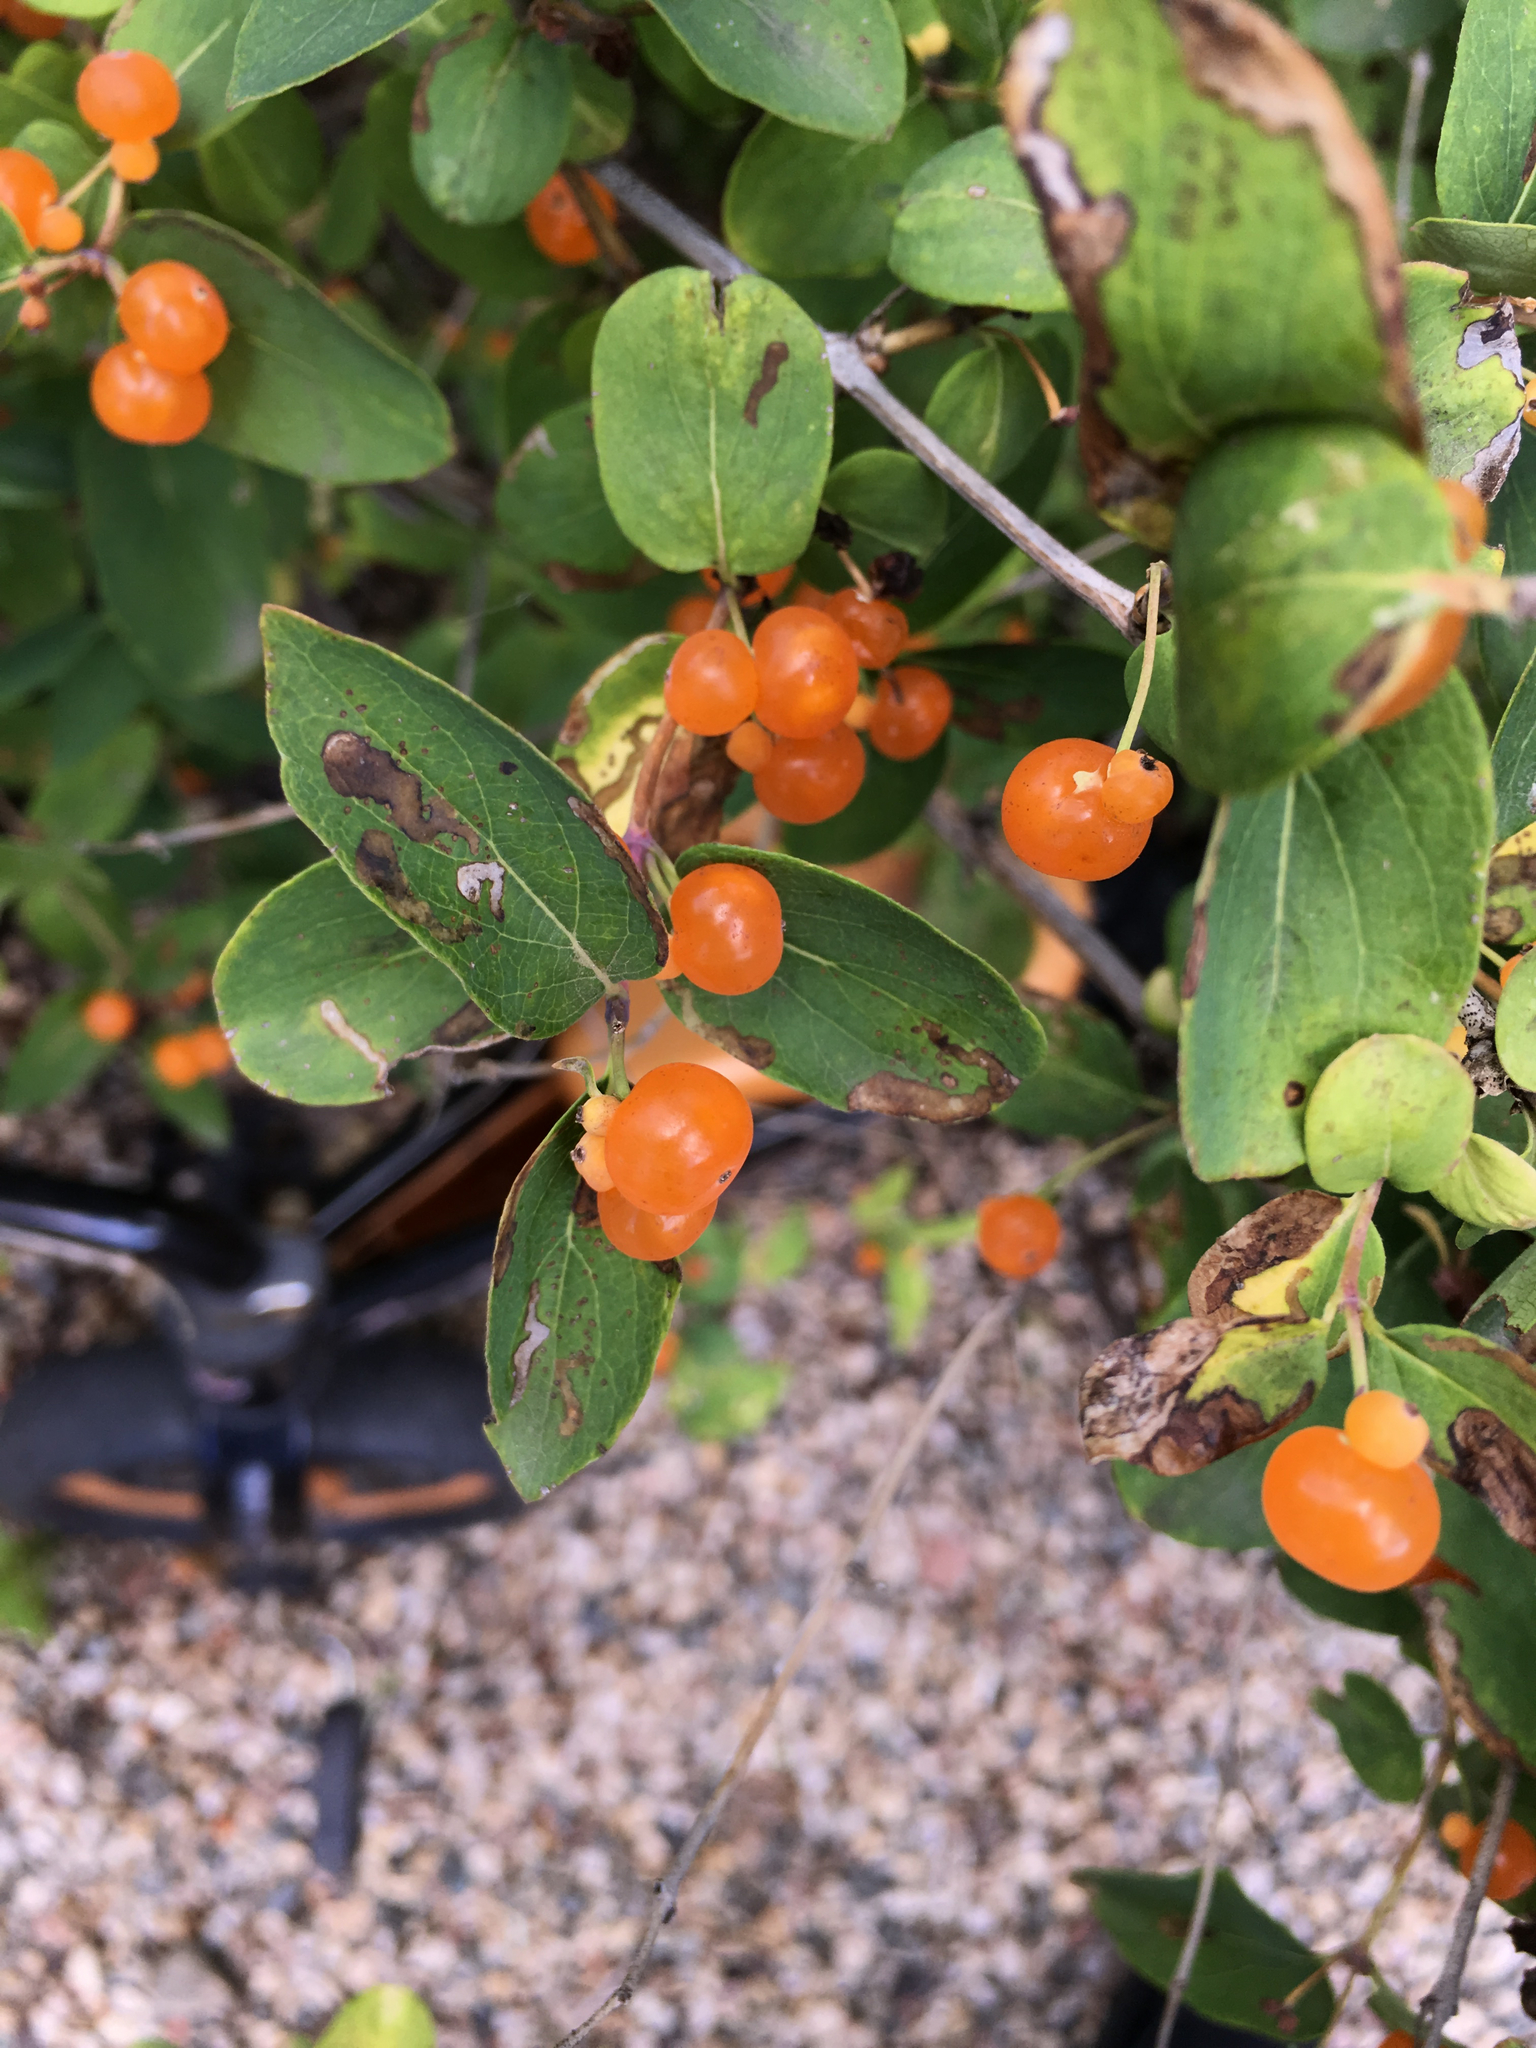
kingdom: Plantae
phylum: Tracheophyta
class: Magnoliopsida
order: Dipsacales
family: Caprifoliaceae
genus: Lonicera
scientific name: Lonicera tatarica
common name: Tatarian honeysuckle
